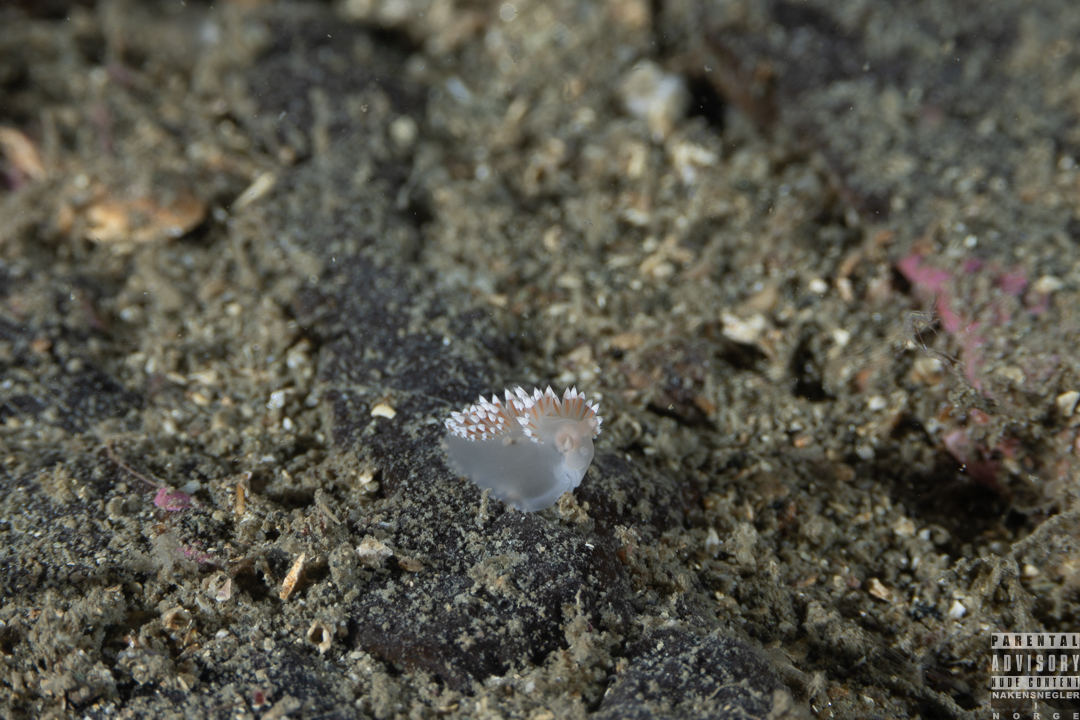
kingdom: Animalia
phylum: Mollusca
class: Gastropoda
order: Nudibranchia
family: Coryphellidae
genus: Coryphella
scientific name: Coryphella verrucosa
